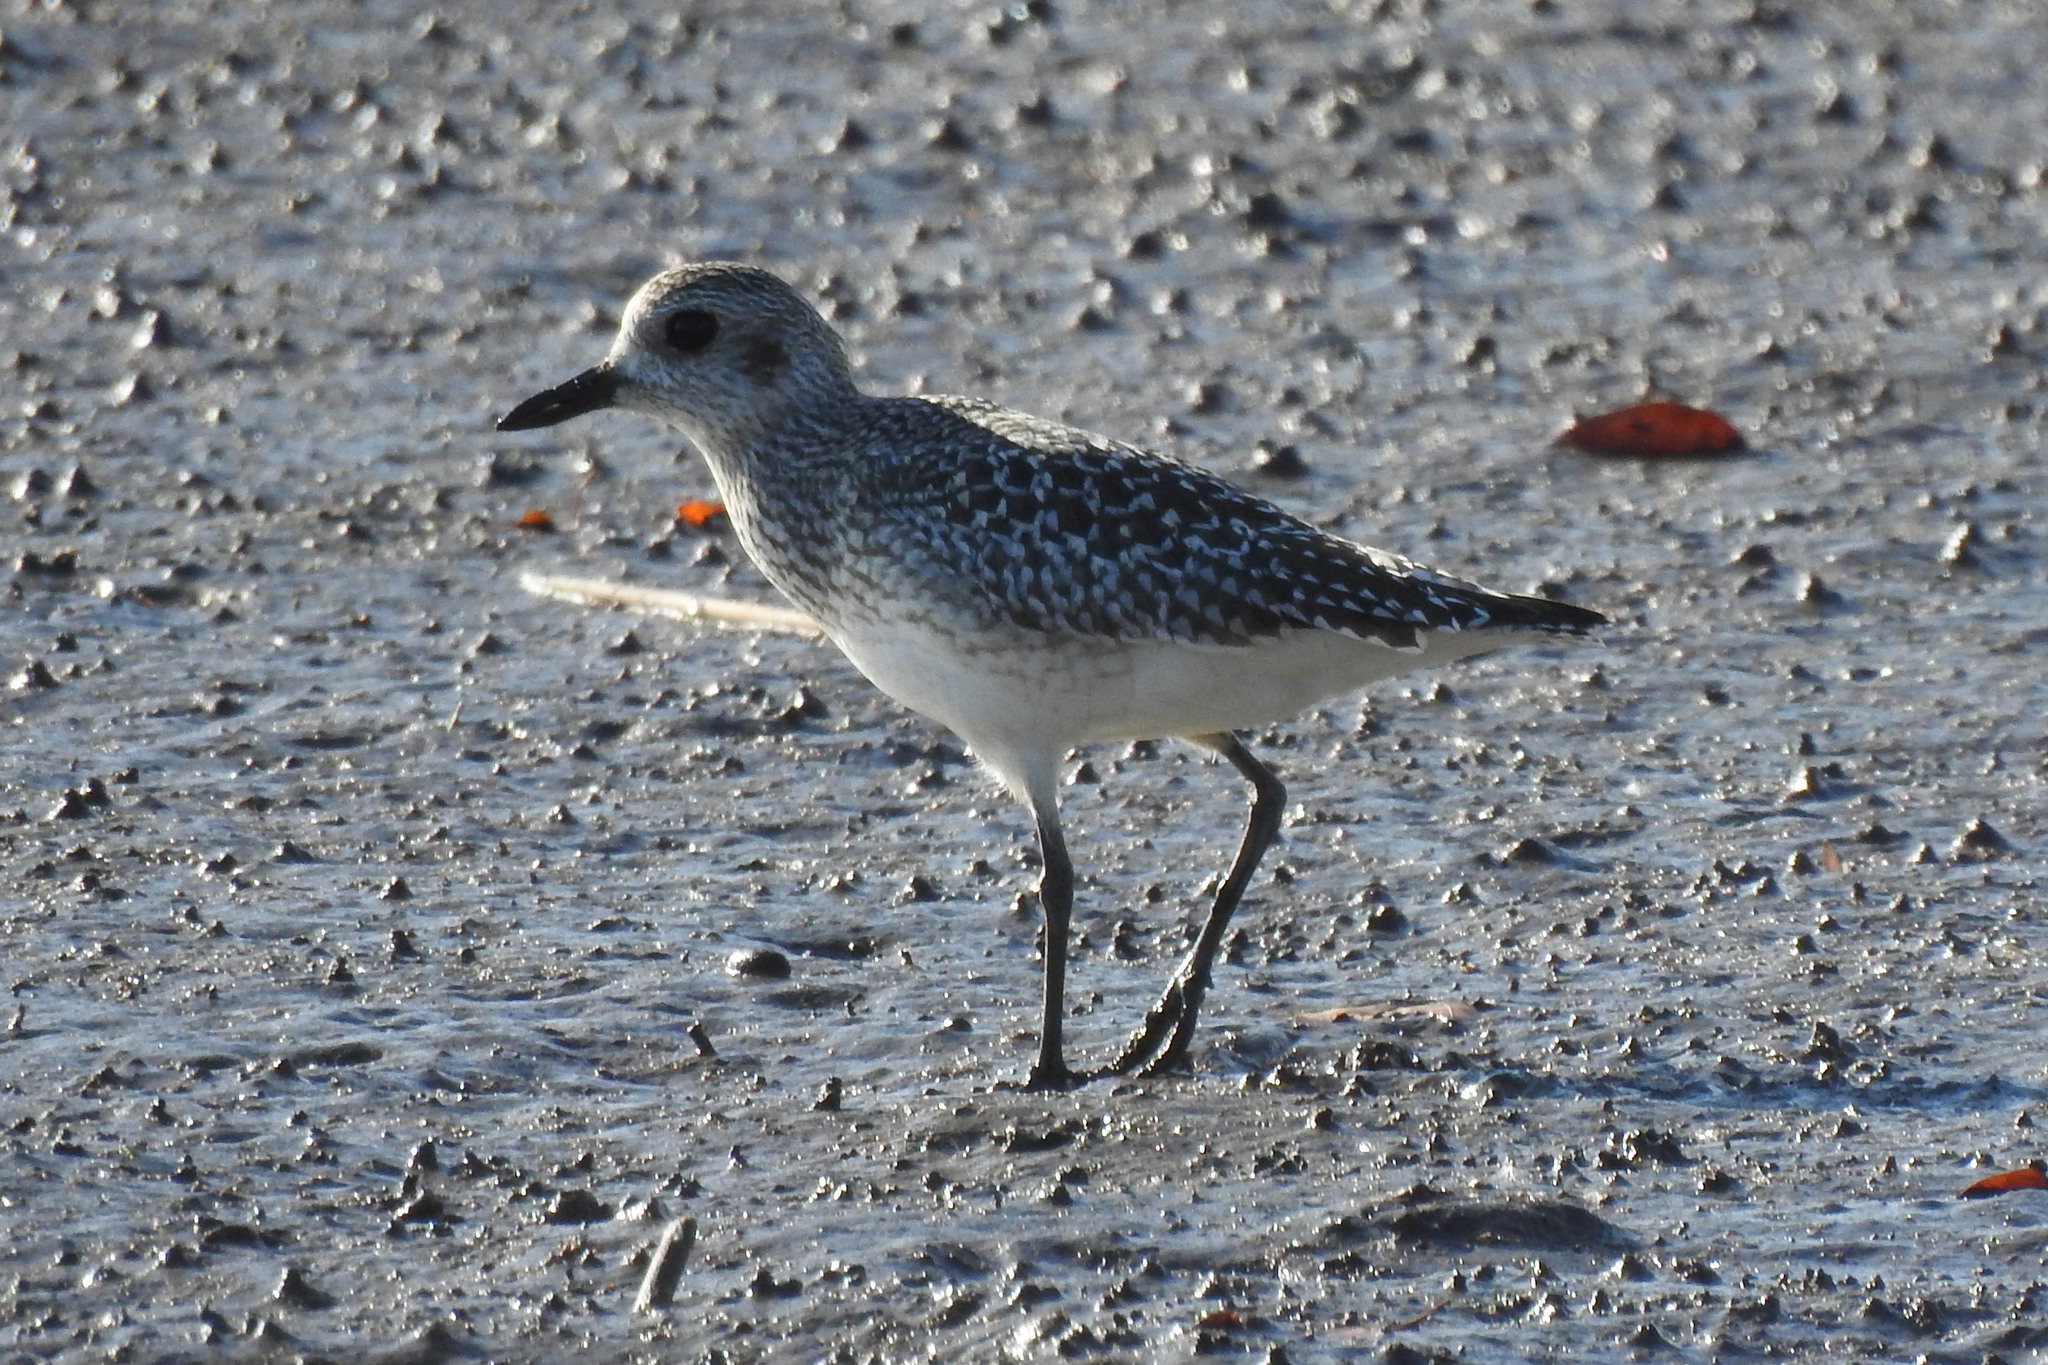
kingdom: Animalia
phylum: Chordata
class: Aves
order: Charadriiformes
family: Charadriidae
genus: Pluvialis
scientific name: Pluvialis squatarola
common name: Grey plover
